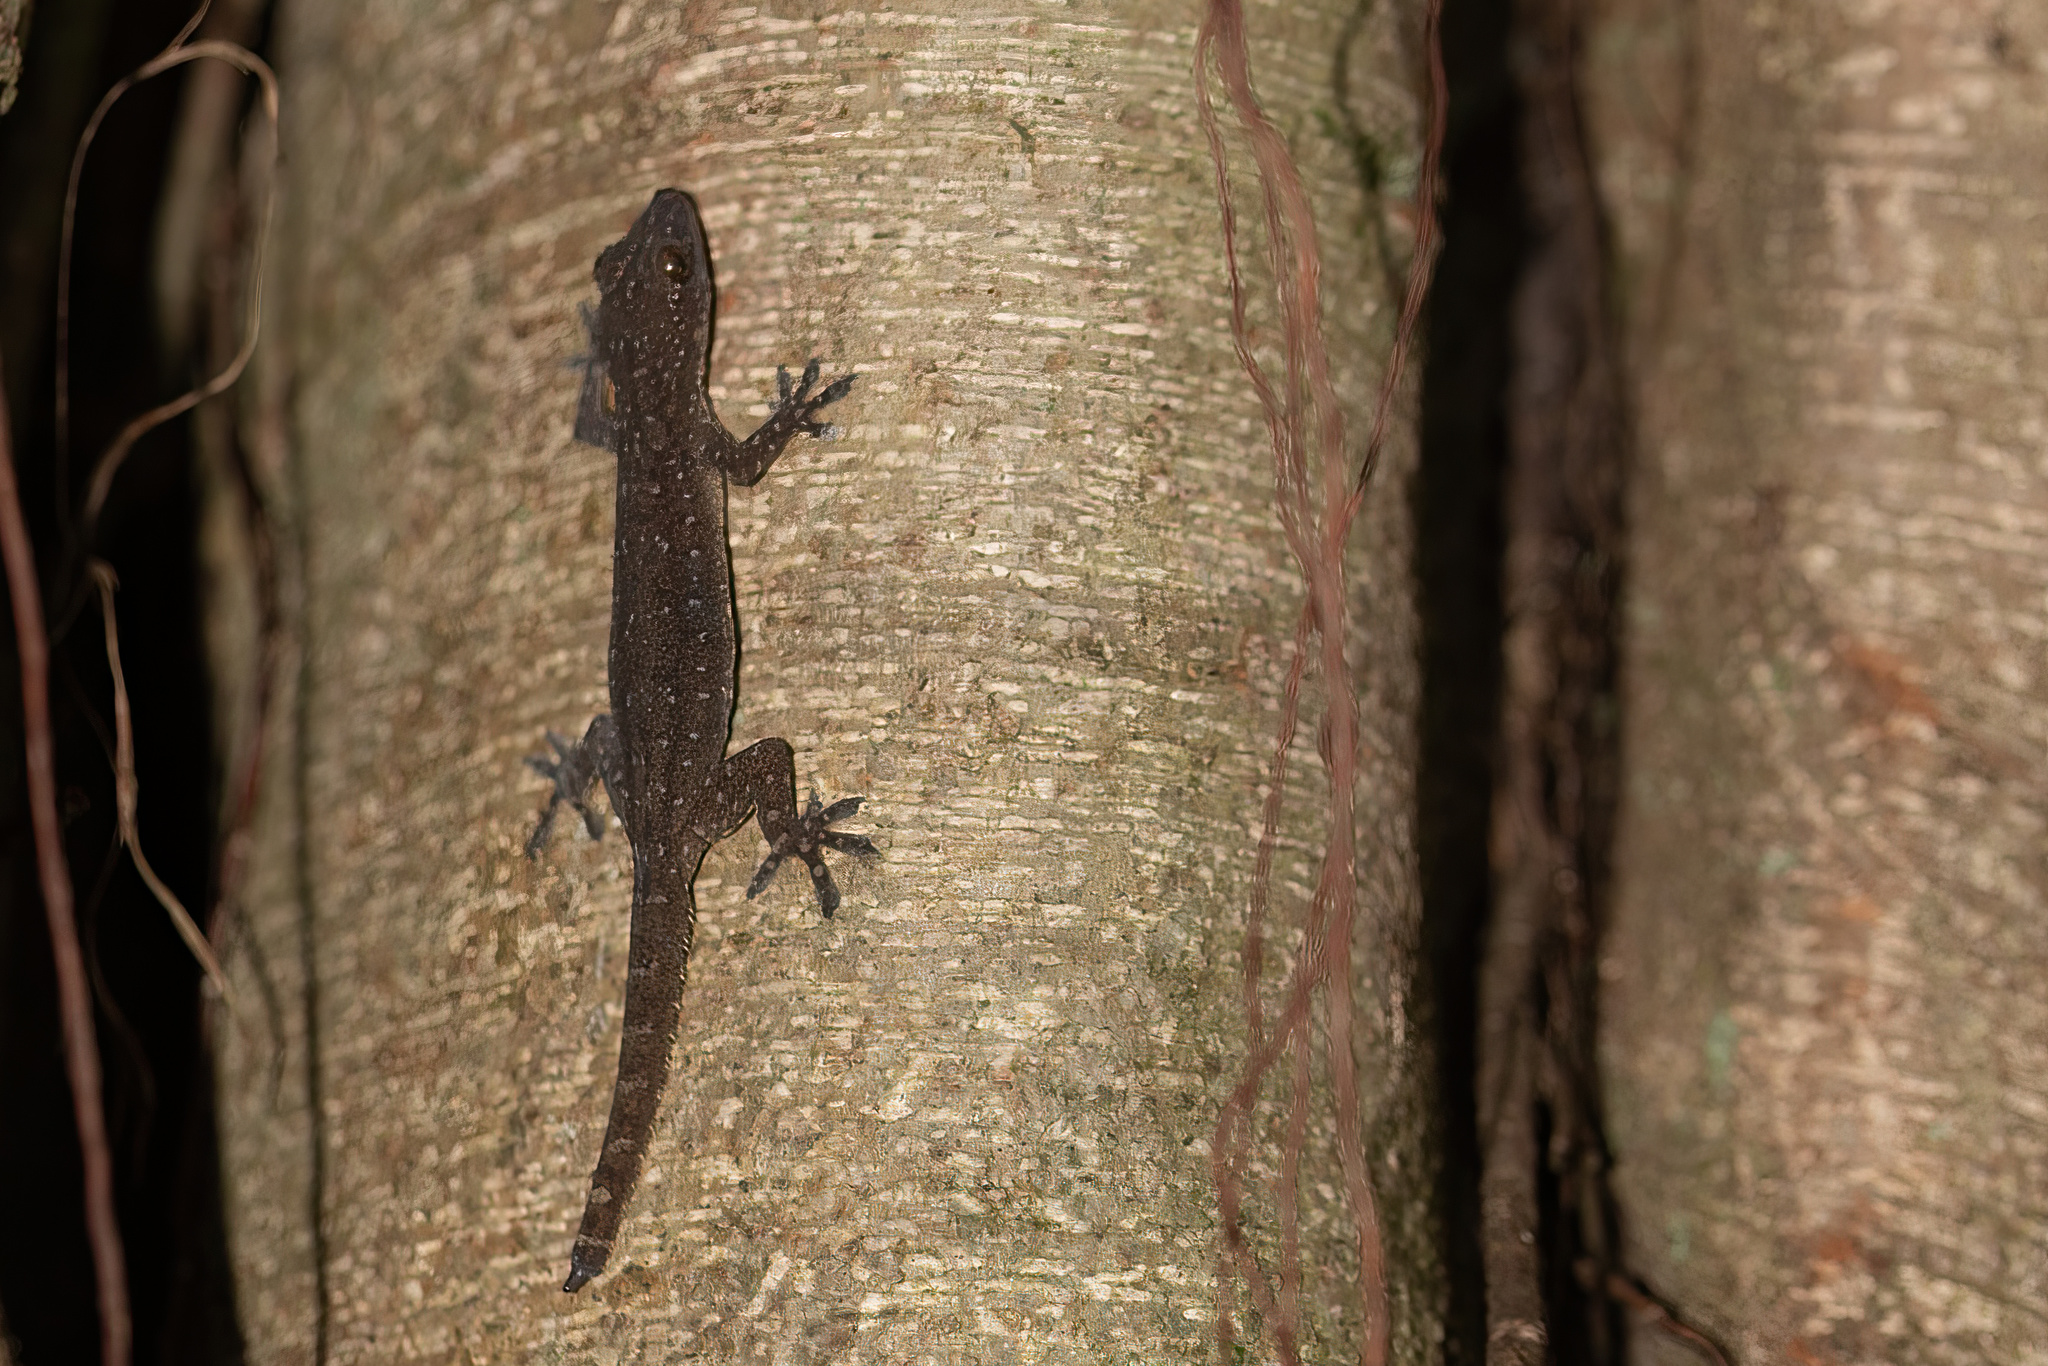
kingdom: Animalia
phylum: Chordata
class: Squamata
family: Gekkonidae
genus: Hemidactylus
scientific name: Hemidactylus garnotii
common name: Indo-pacific gecko
